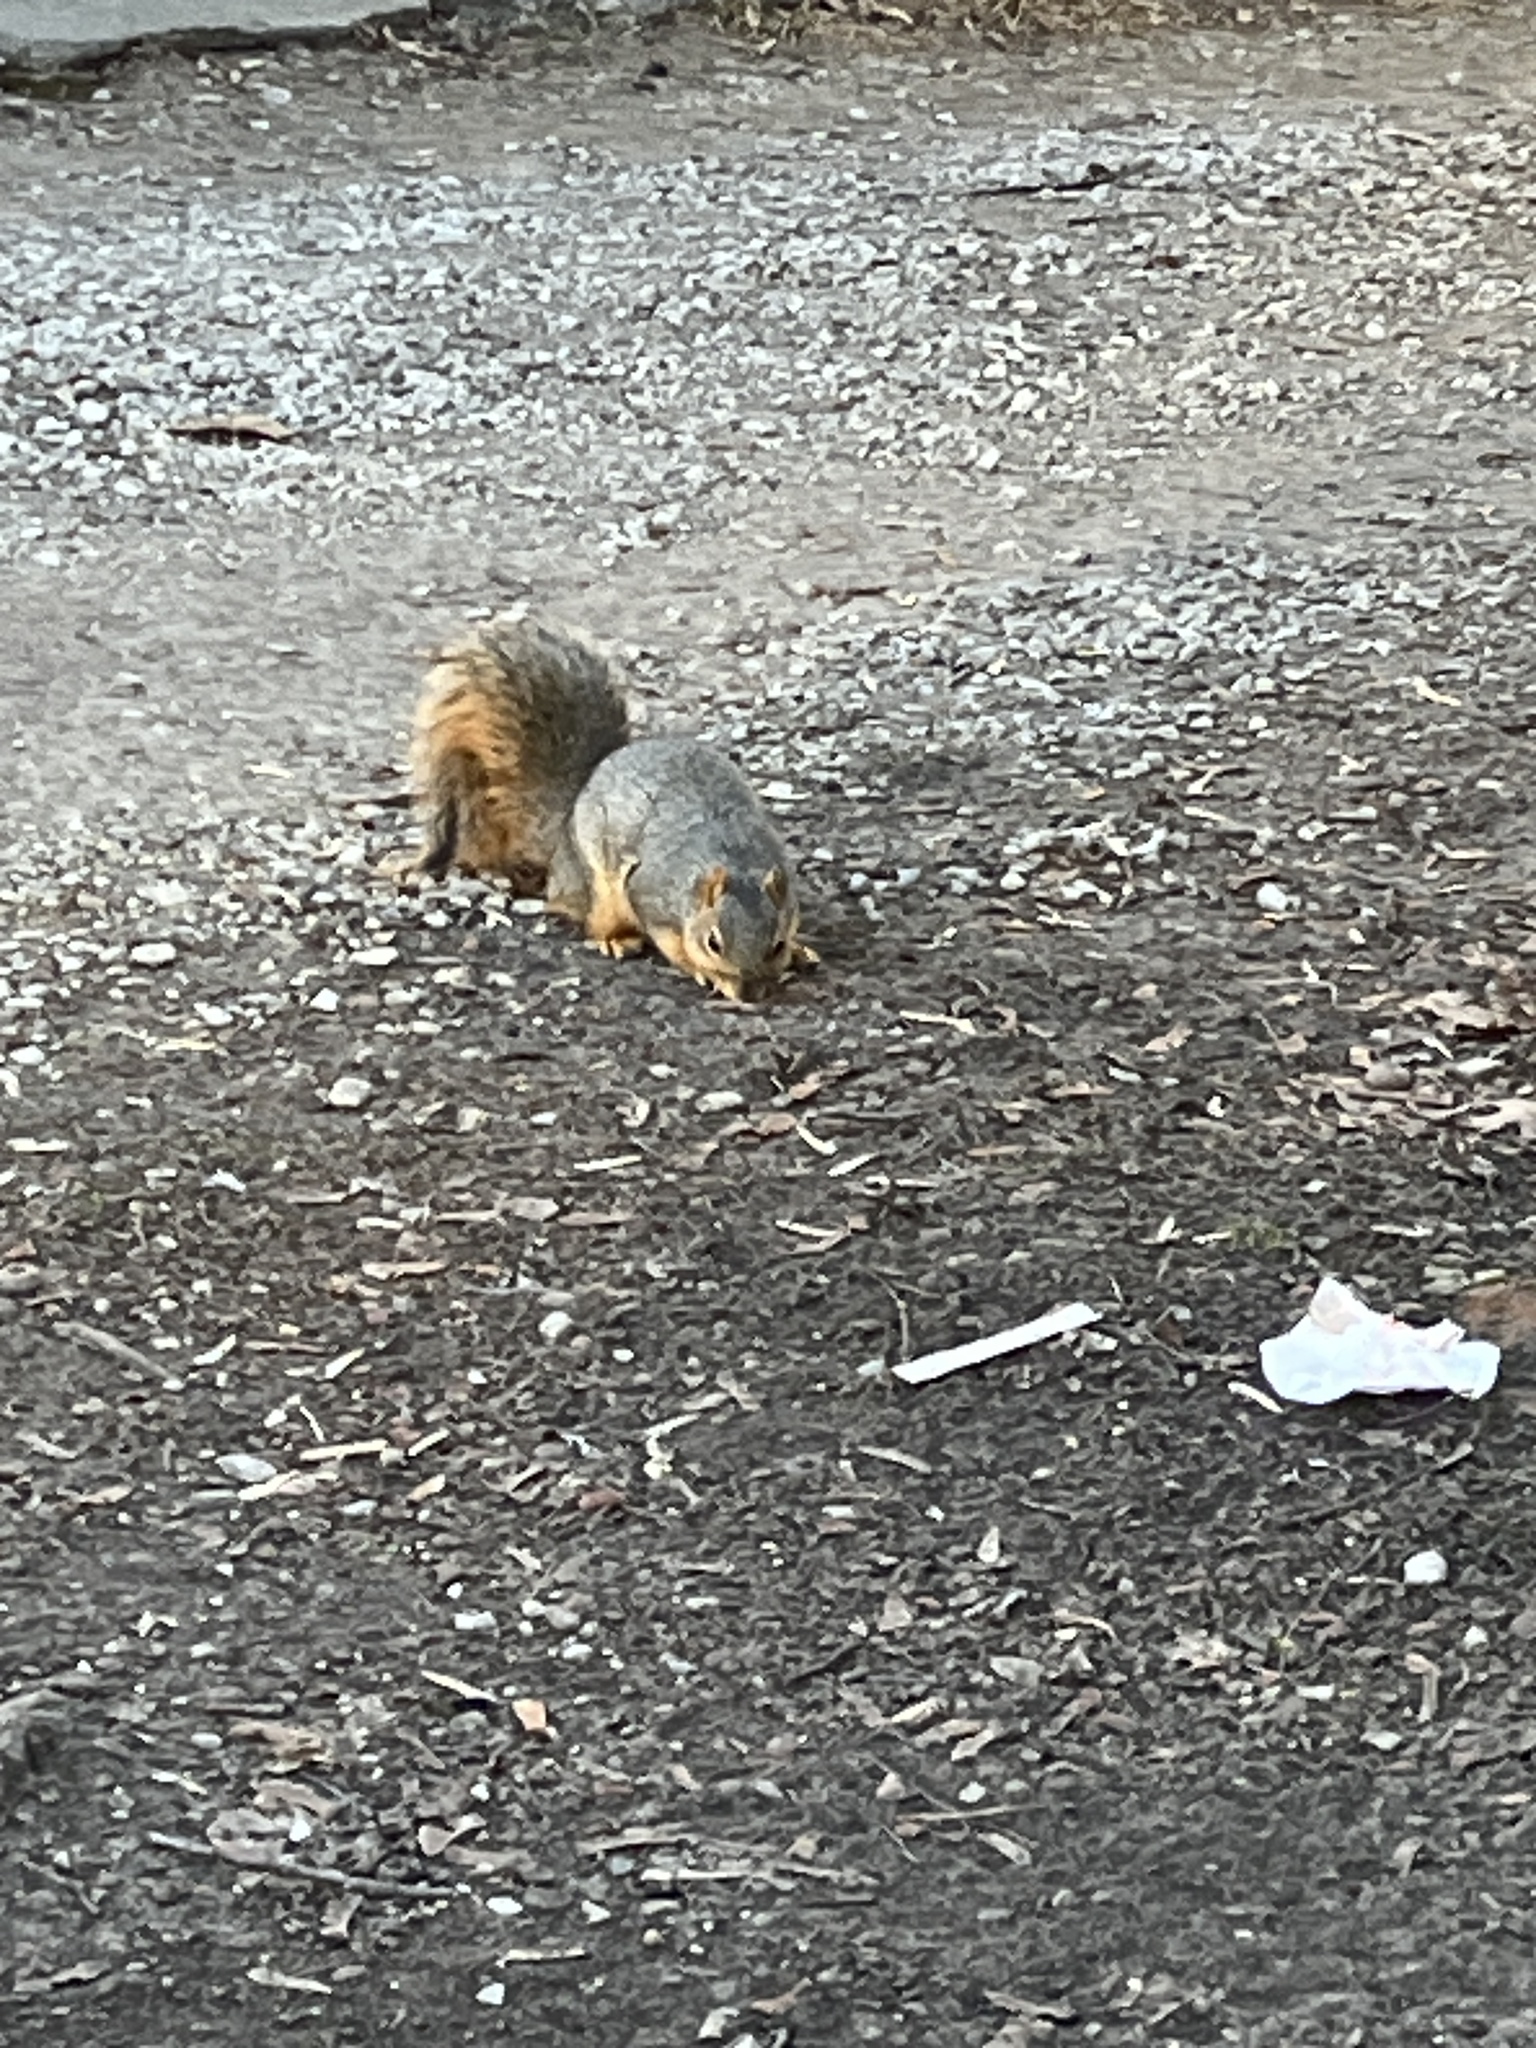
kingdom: Animalia
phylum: Chordata
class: Mammalia
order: Rodentia
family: Sciuridae
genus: Sciurus
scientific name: Sciurus niger
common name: Fox squirrel
